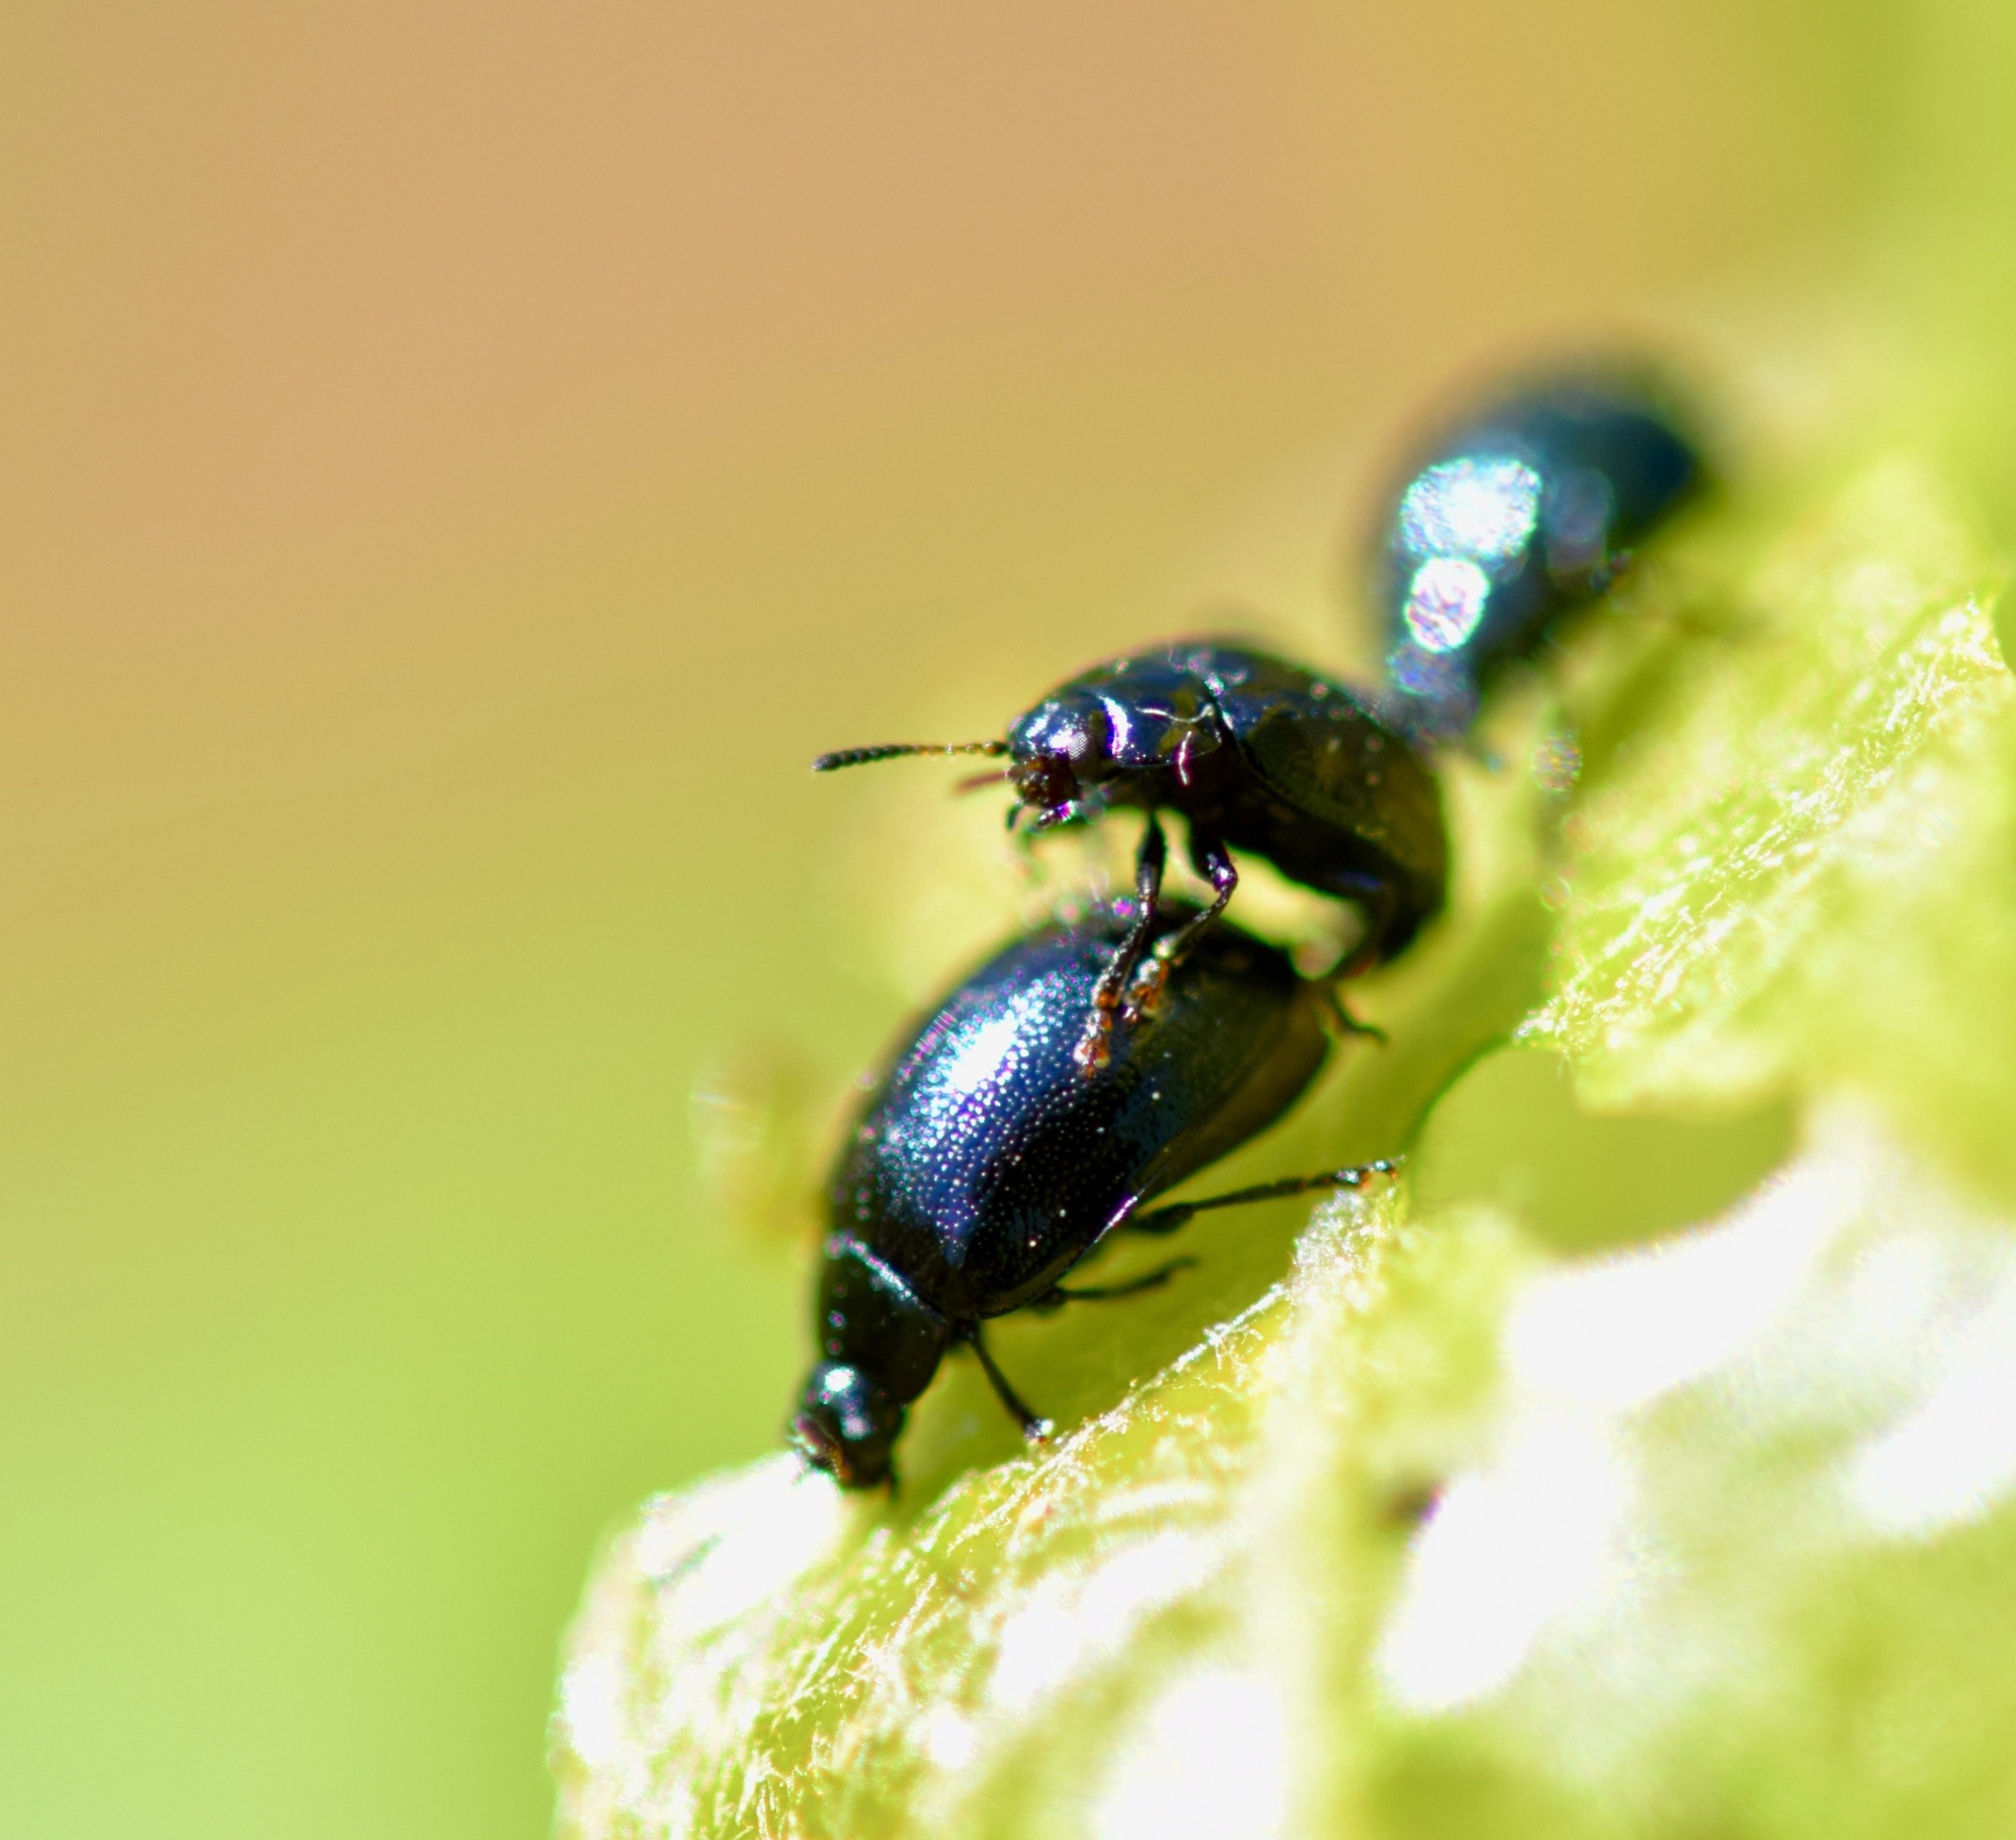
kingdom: Animalia
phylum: Arthropoda
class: Insecta
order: Coleoptera
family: Chrysomelidae
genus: Plagiodera
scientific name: Plagiodera versicolora
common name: Imported willow leaf beetle
